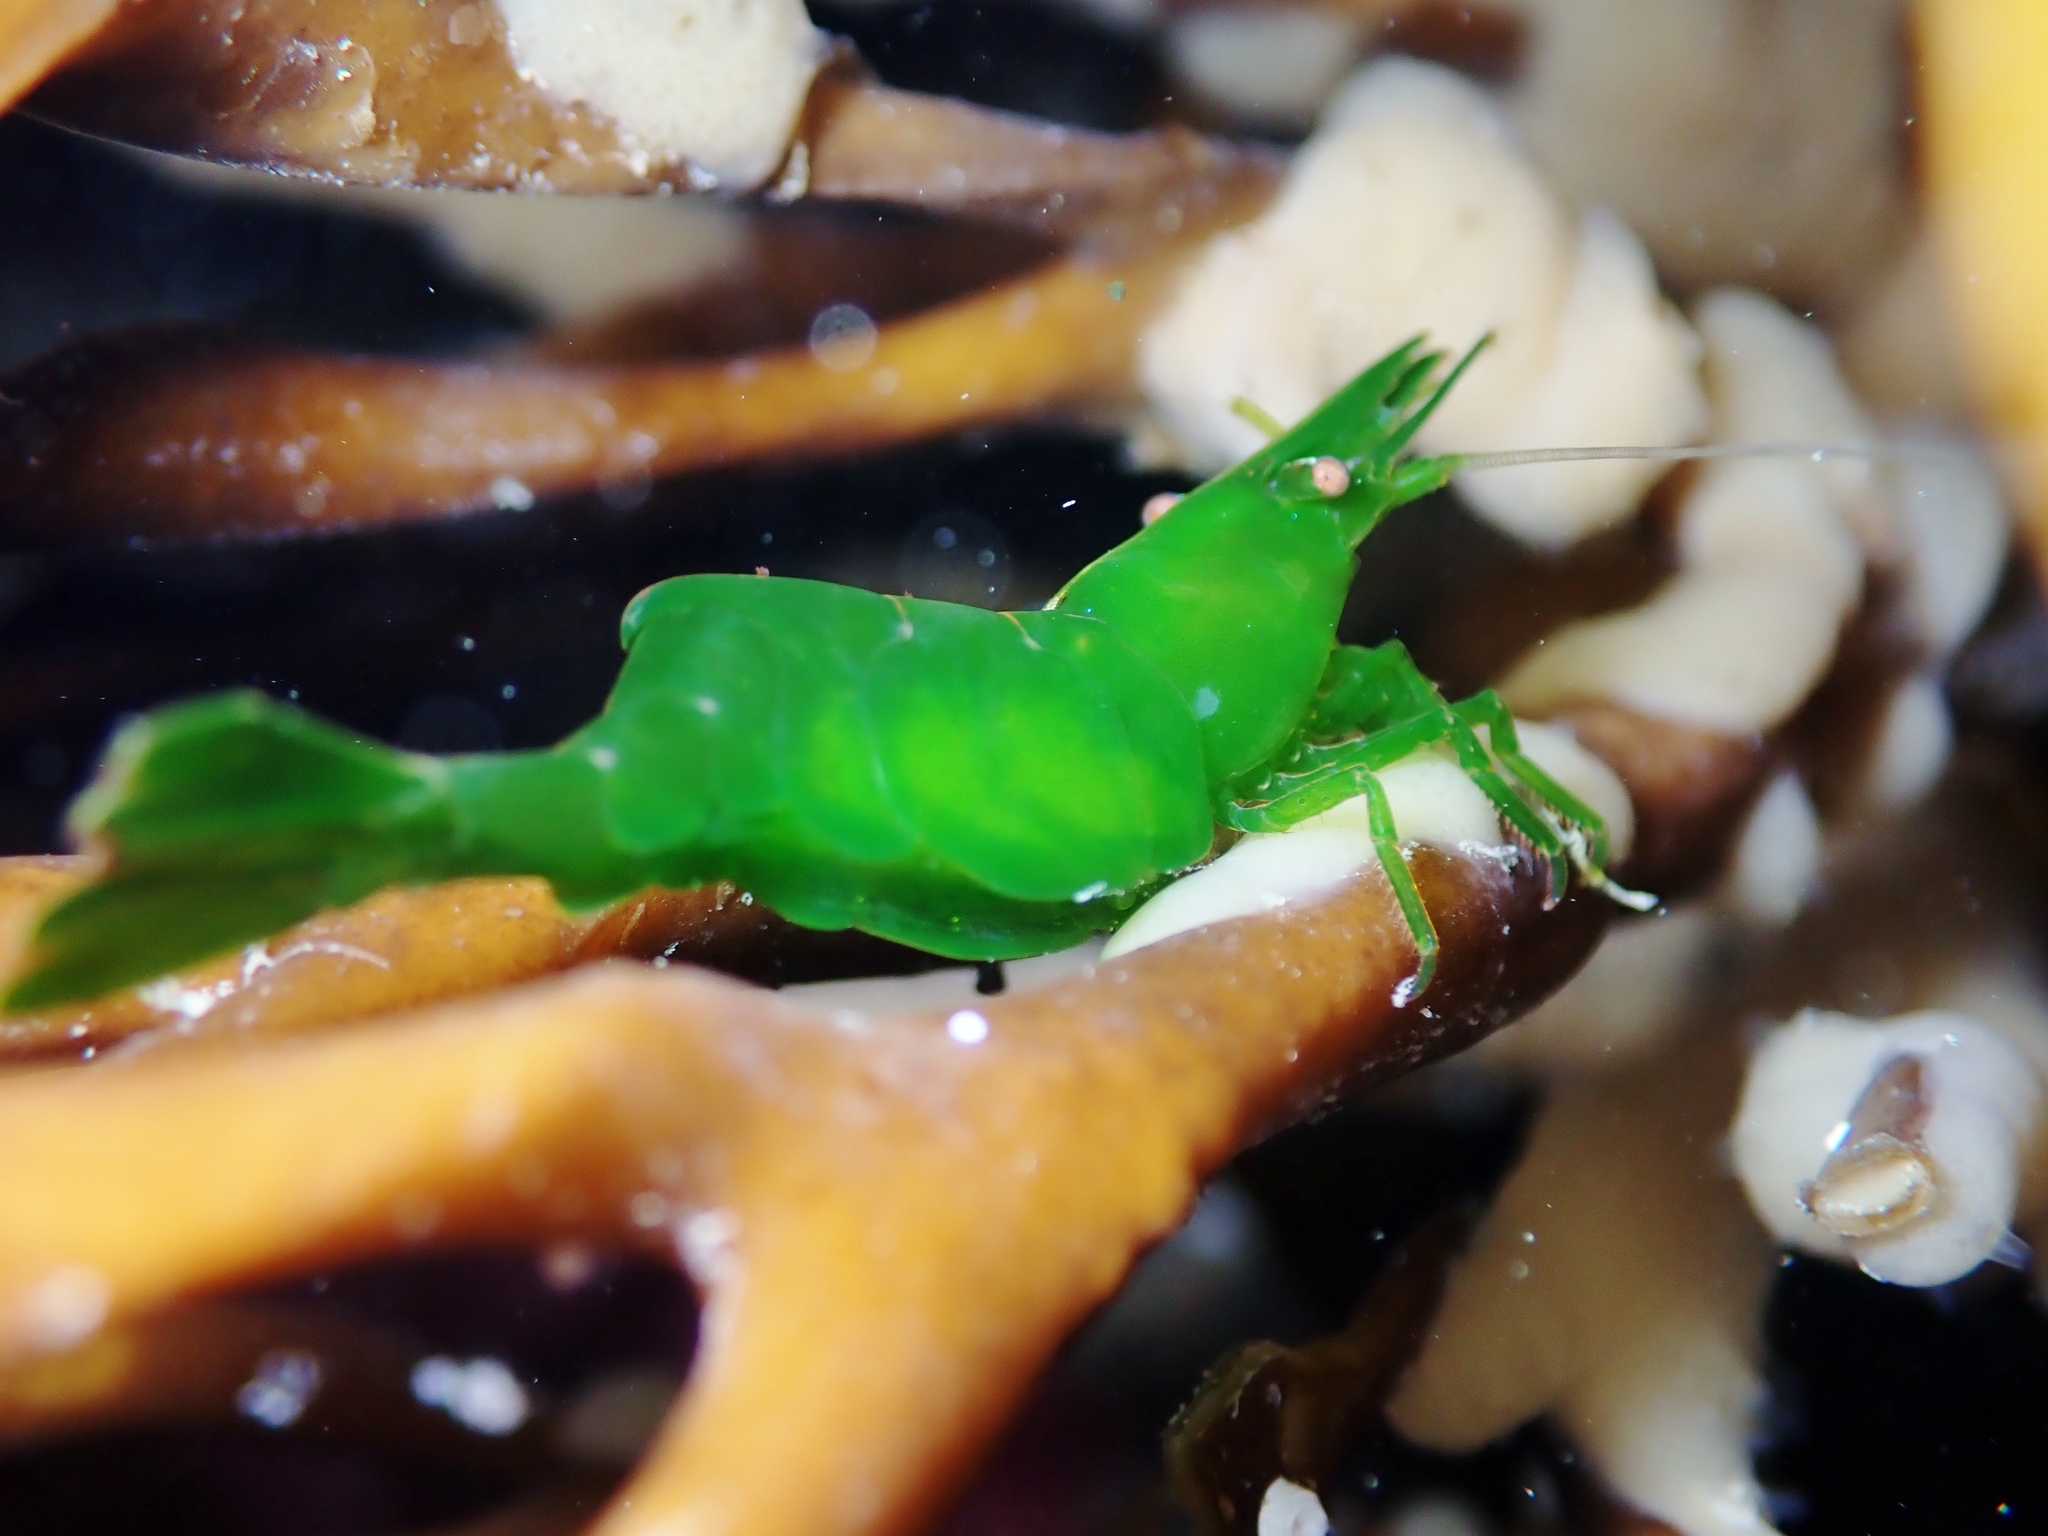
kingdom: Animalia
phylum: Arthropoda
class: Malacostraca
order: Decapoda
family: Hippolytidae
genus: Hippolyte
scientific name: Hippolyte multicolorata
